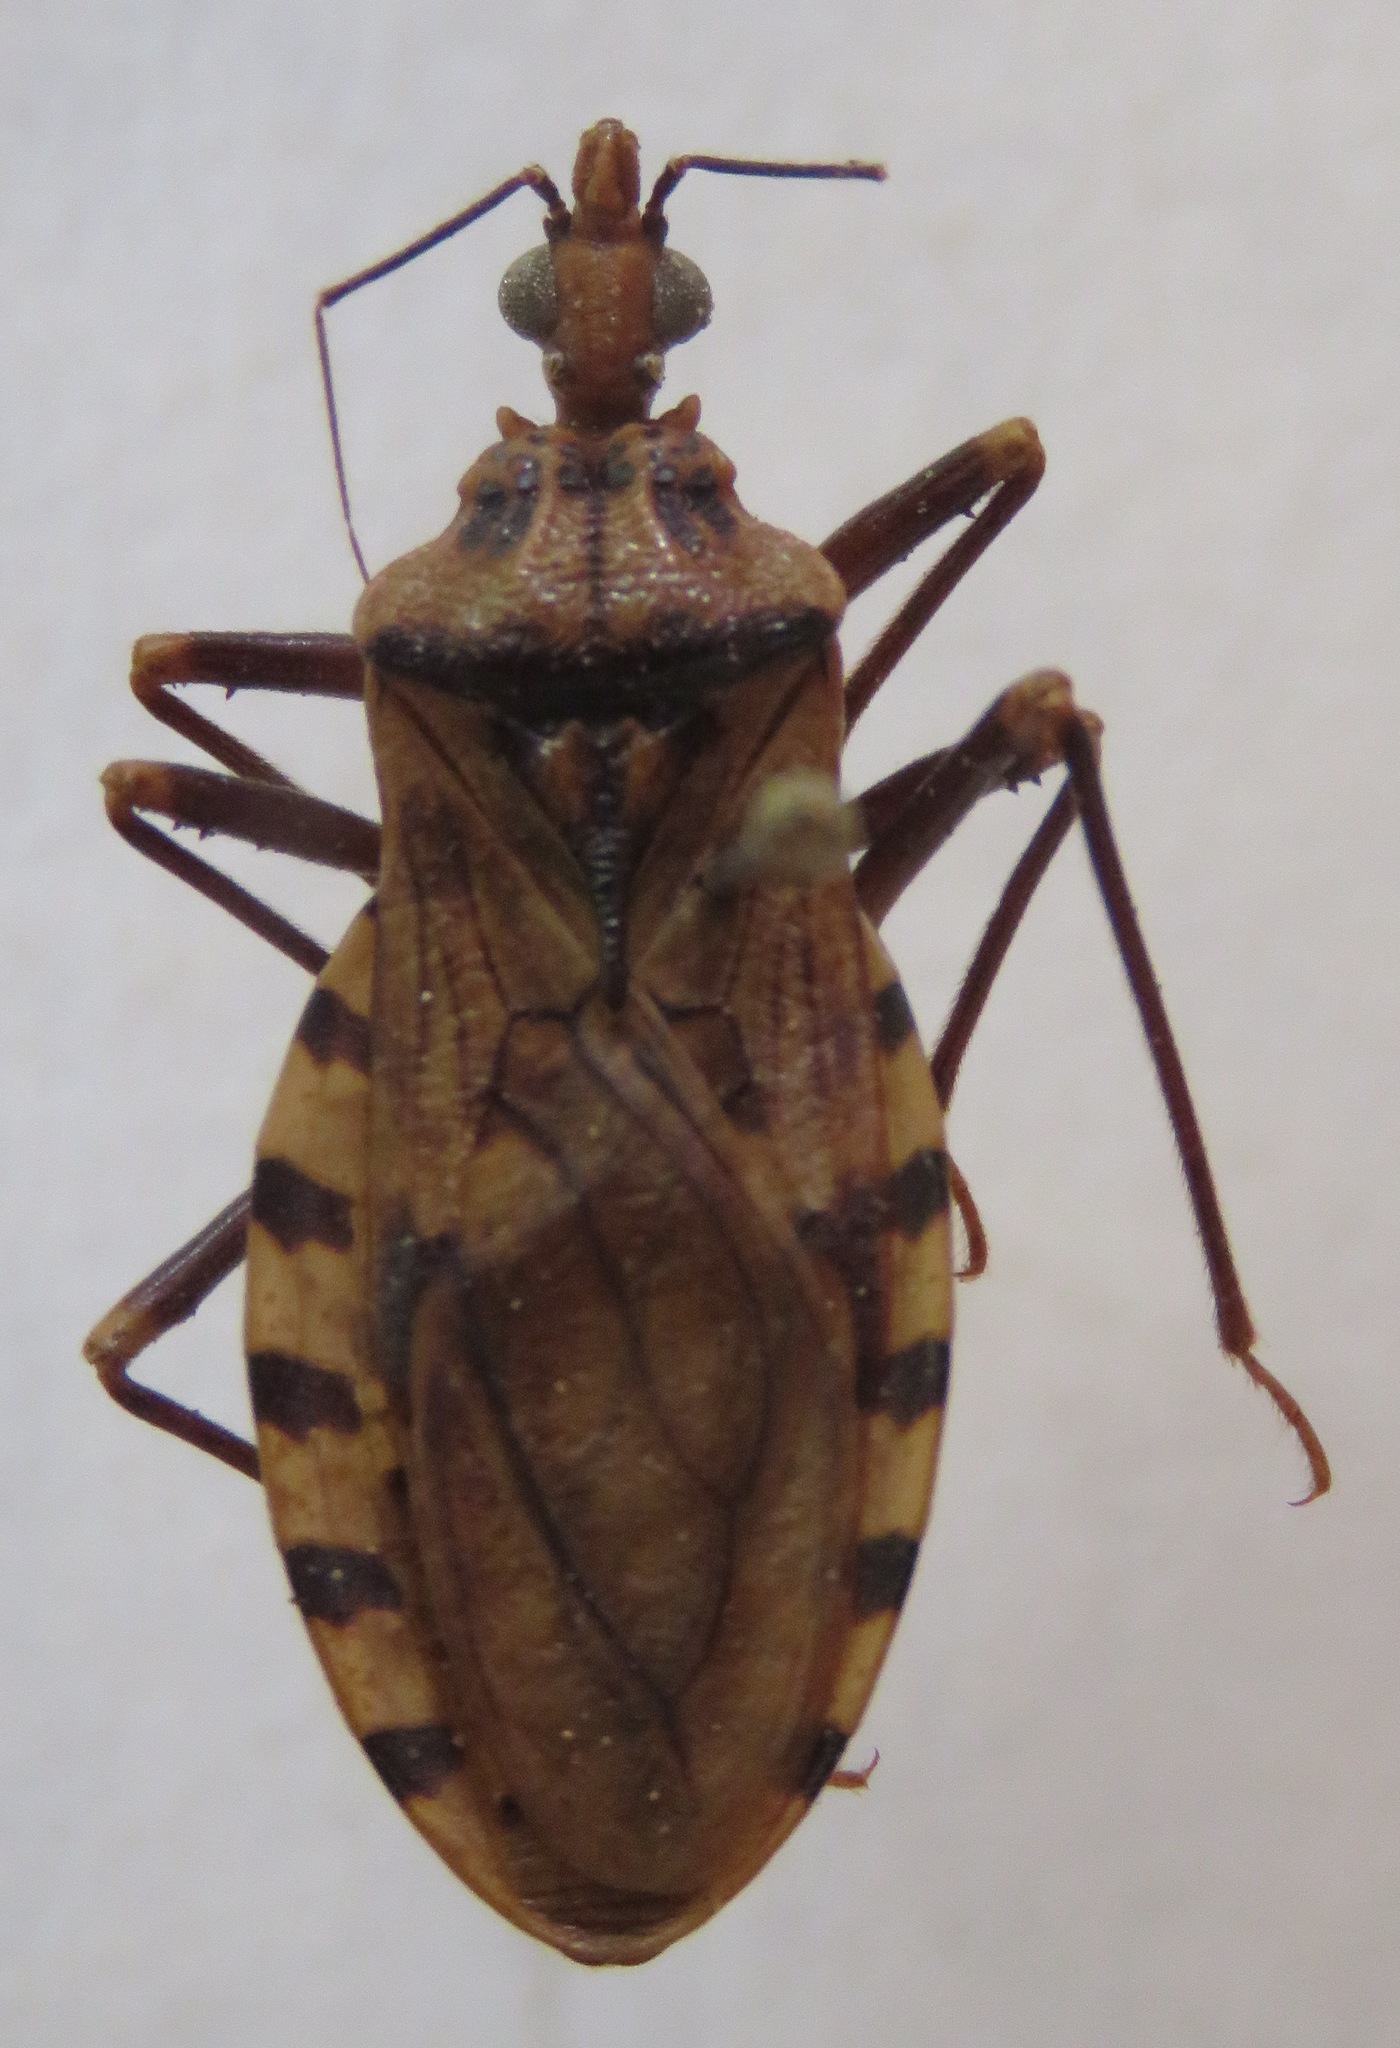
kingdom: Animalia
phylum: Arthropoda
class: Insecta
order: Hemiptera
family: Reduviidae
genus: Panstrongylus
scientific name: Panstrongylus geniculatus
